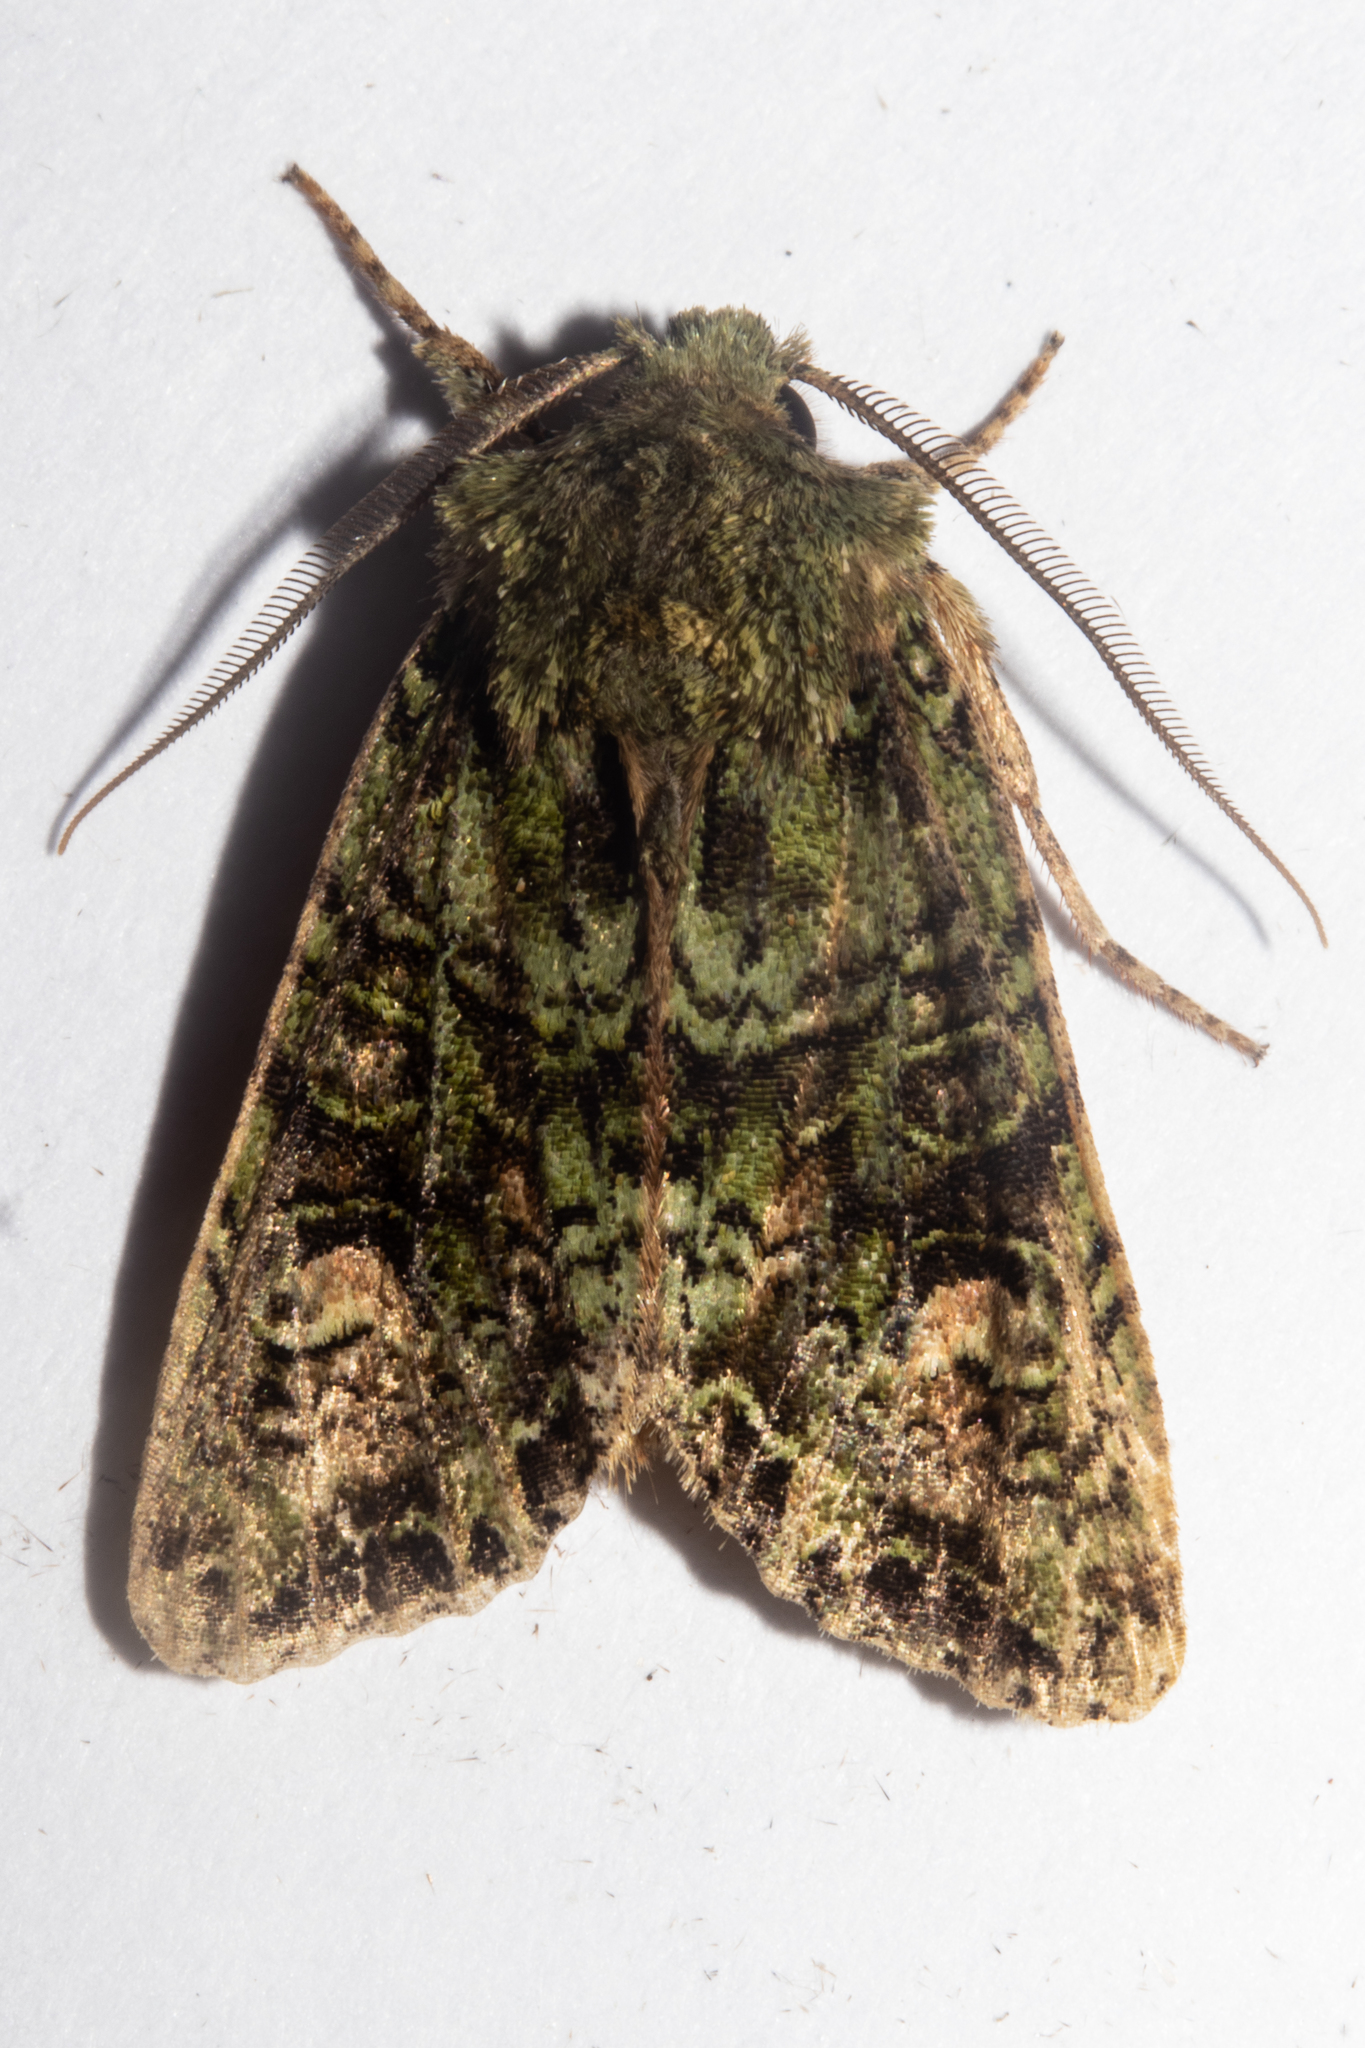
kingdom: Animalia
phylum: Arthropoda
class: Insecta
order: Lepidoptera
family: Noctuidae
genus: Ichneutica
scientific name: Ichneutica
